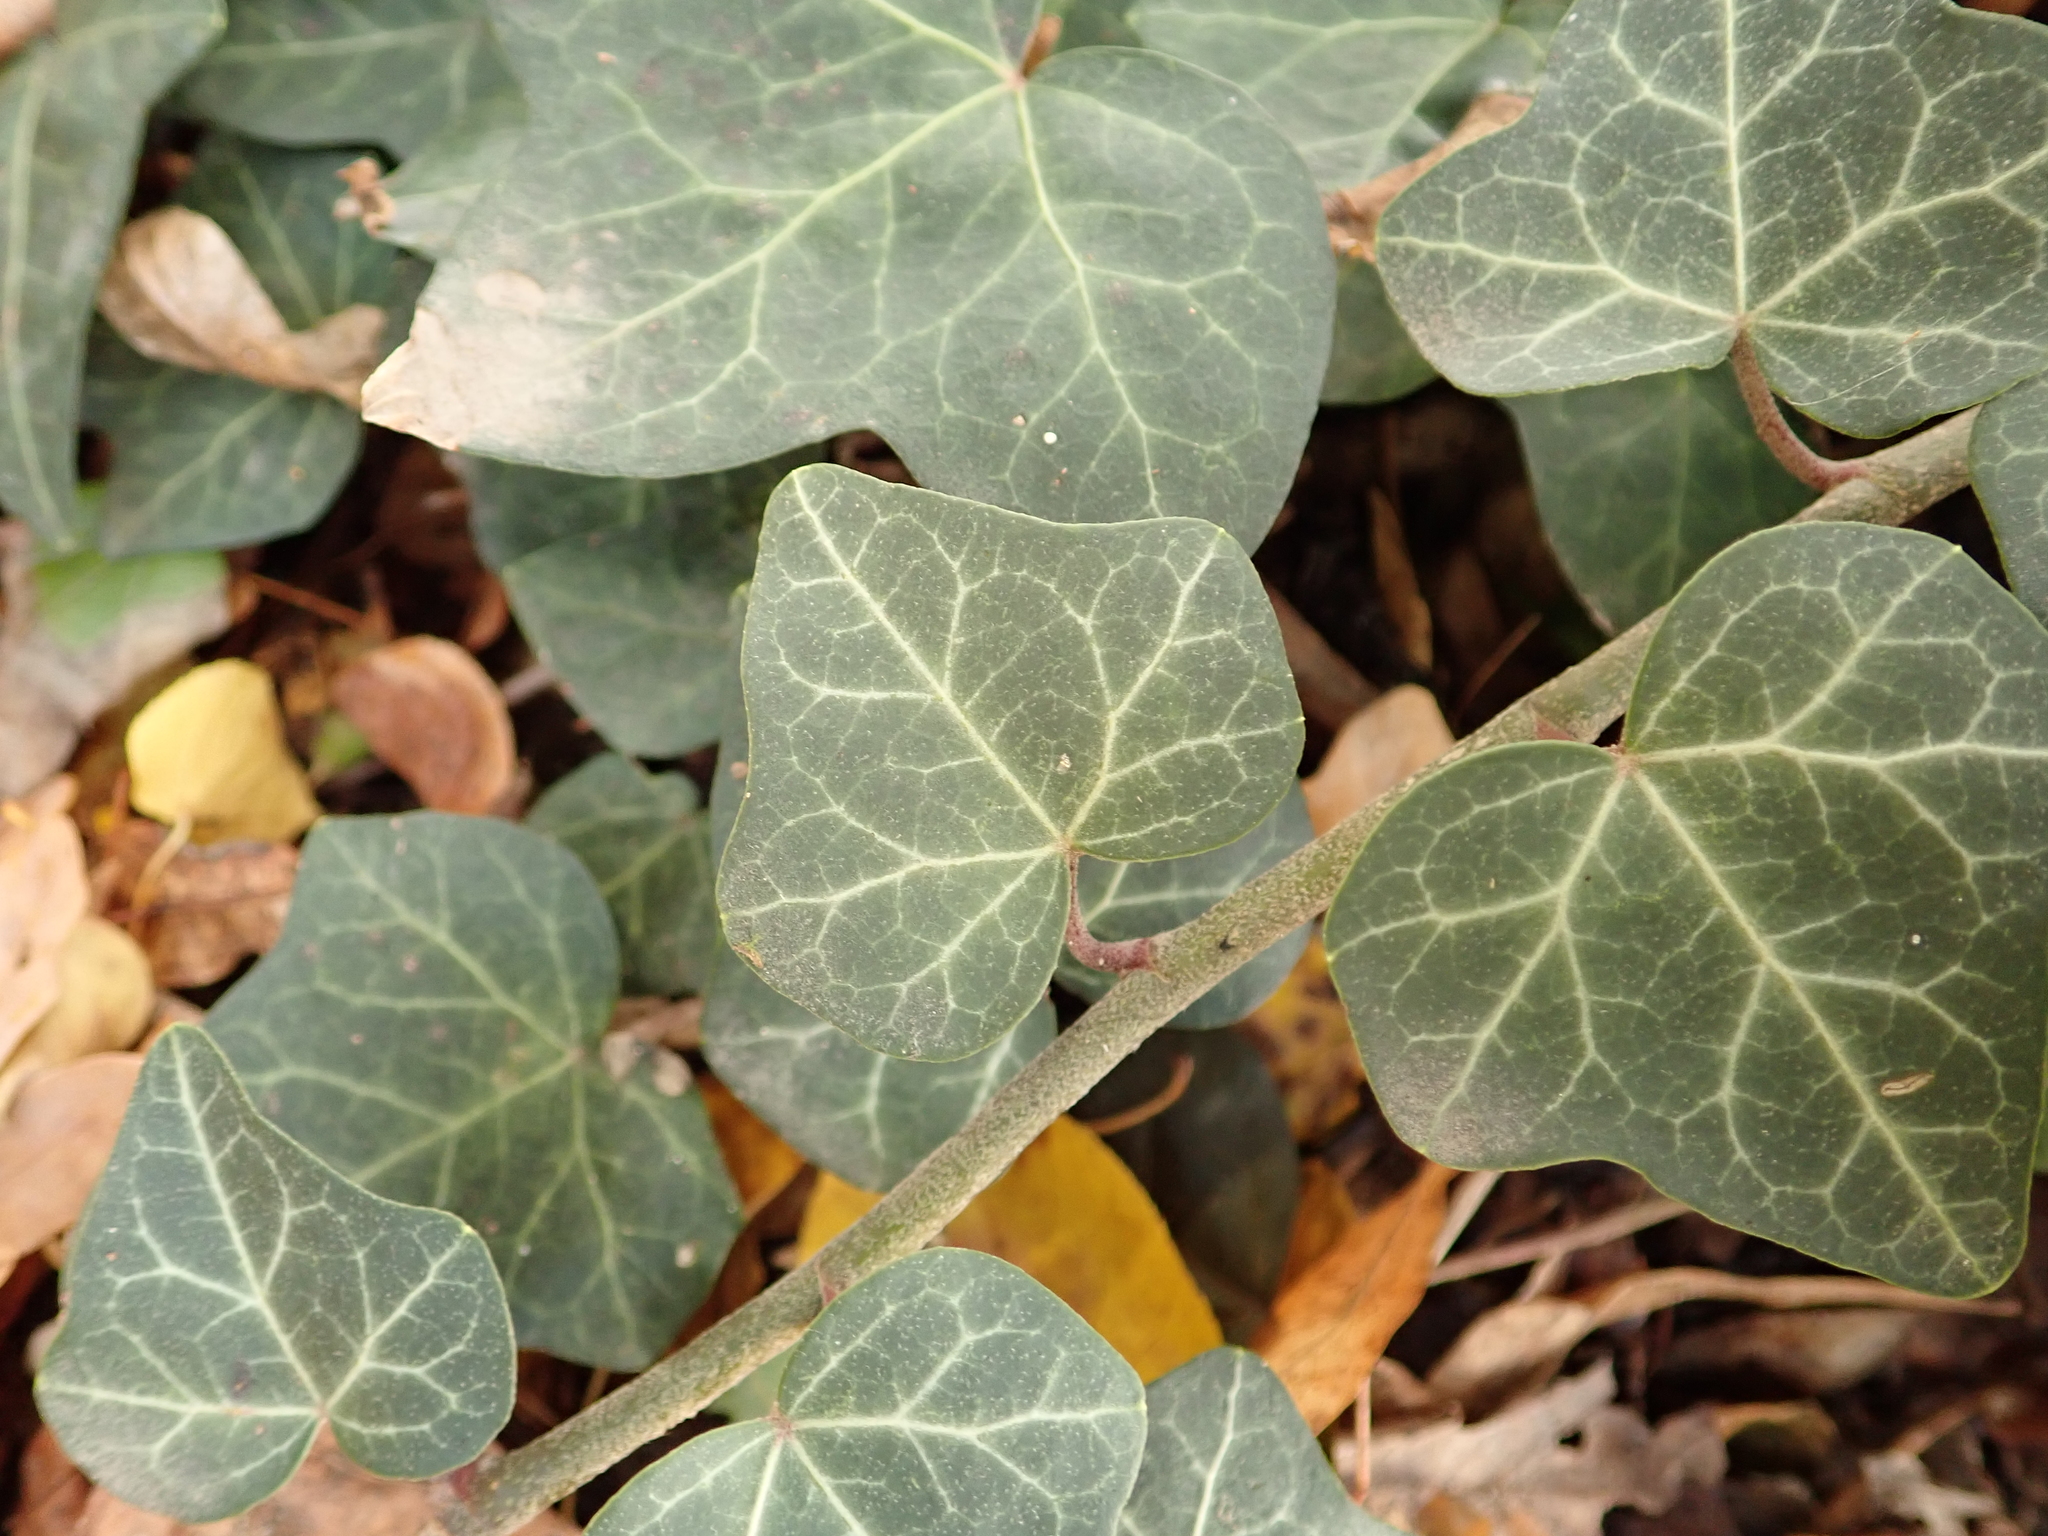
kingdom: Plantae
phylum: Tracheophyta
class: Magnoliopsida
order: Apiales
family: Araliaceae
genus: Hedera
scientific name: Hedera helix
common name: Ivy
